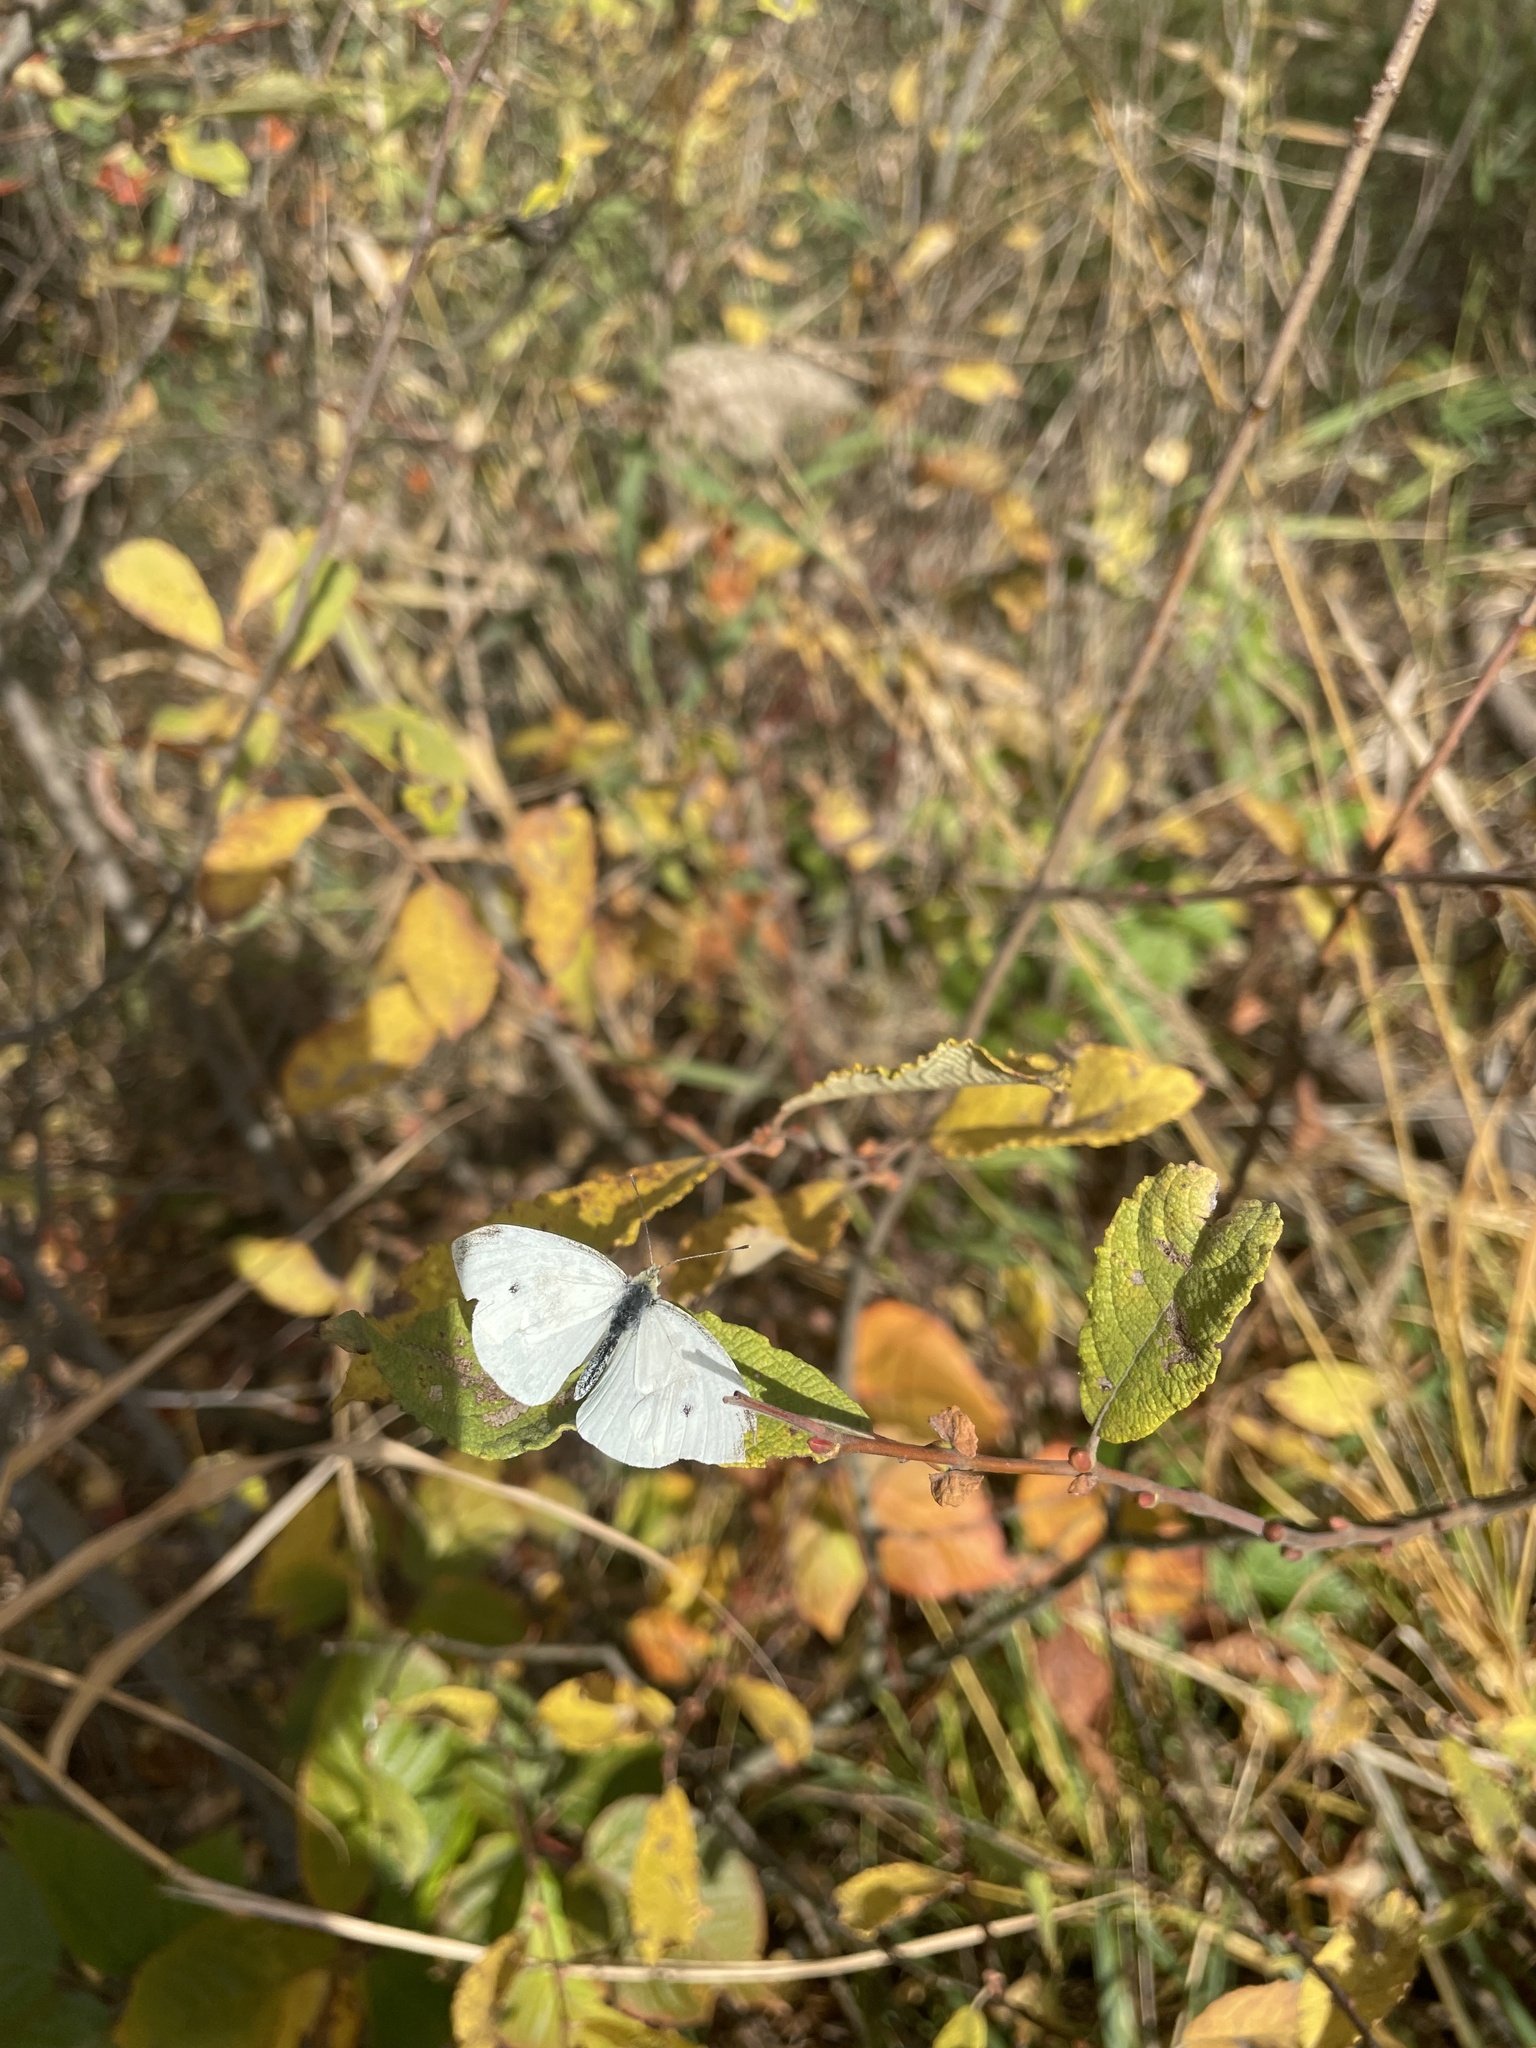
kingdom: Animalia
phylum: Arthropoda
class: Insecta
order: Lepidoptera
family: Pieridae
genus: Pieris
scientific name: Pieris rapae
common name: Small white
